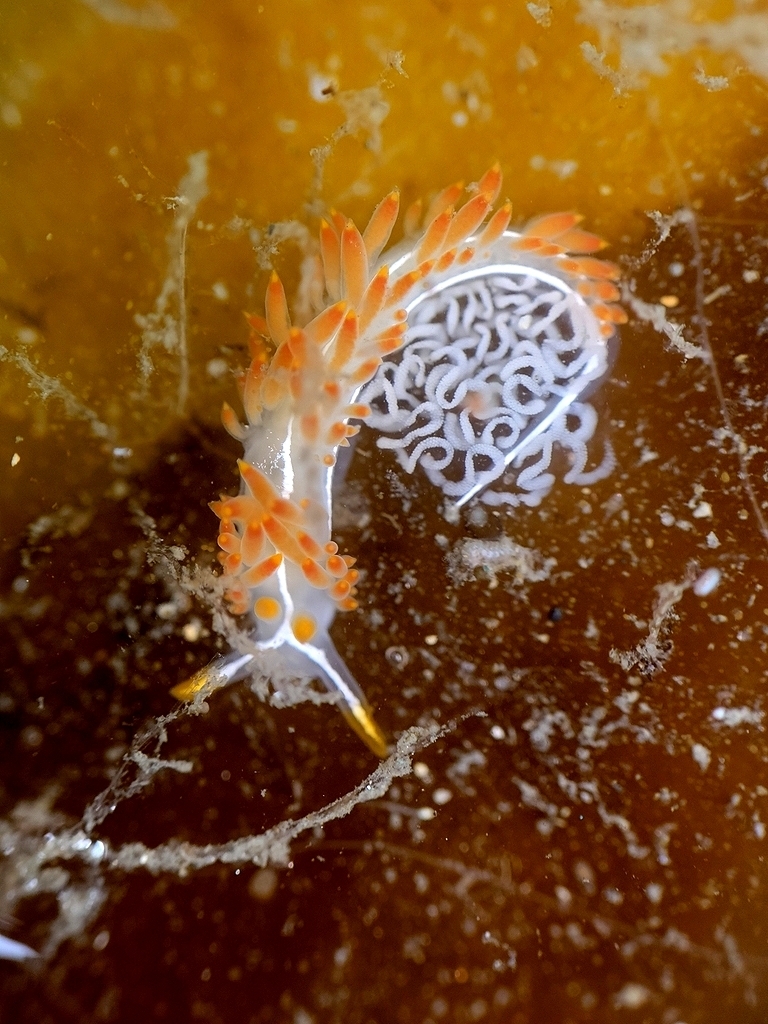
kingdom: Animalia
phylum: Mollusca
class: Gastropoda
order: Nudibranchia
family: Coryphellidae
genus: Coryphella
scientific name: Coryphella trilineata
